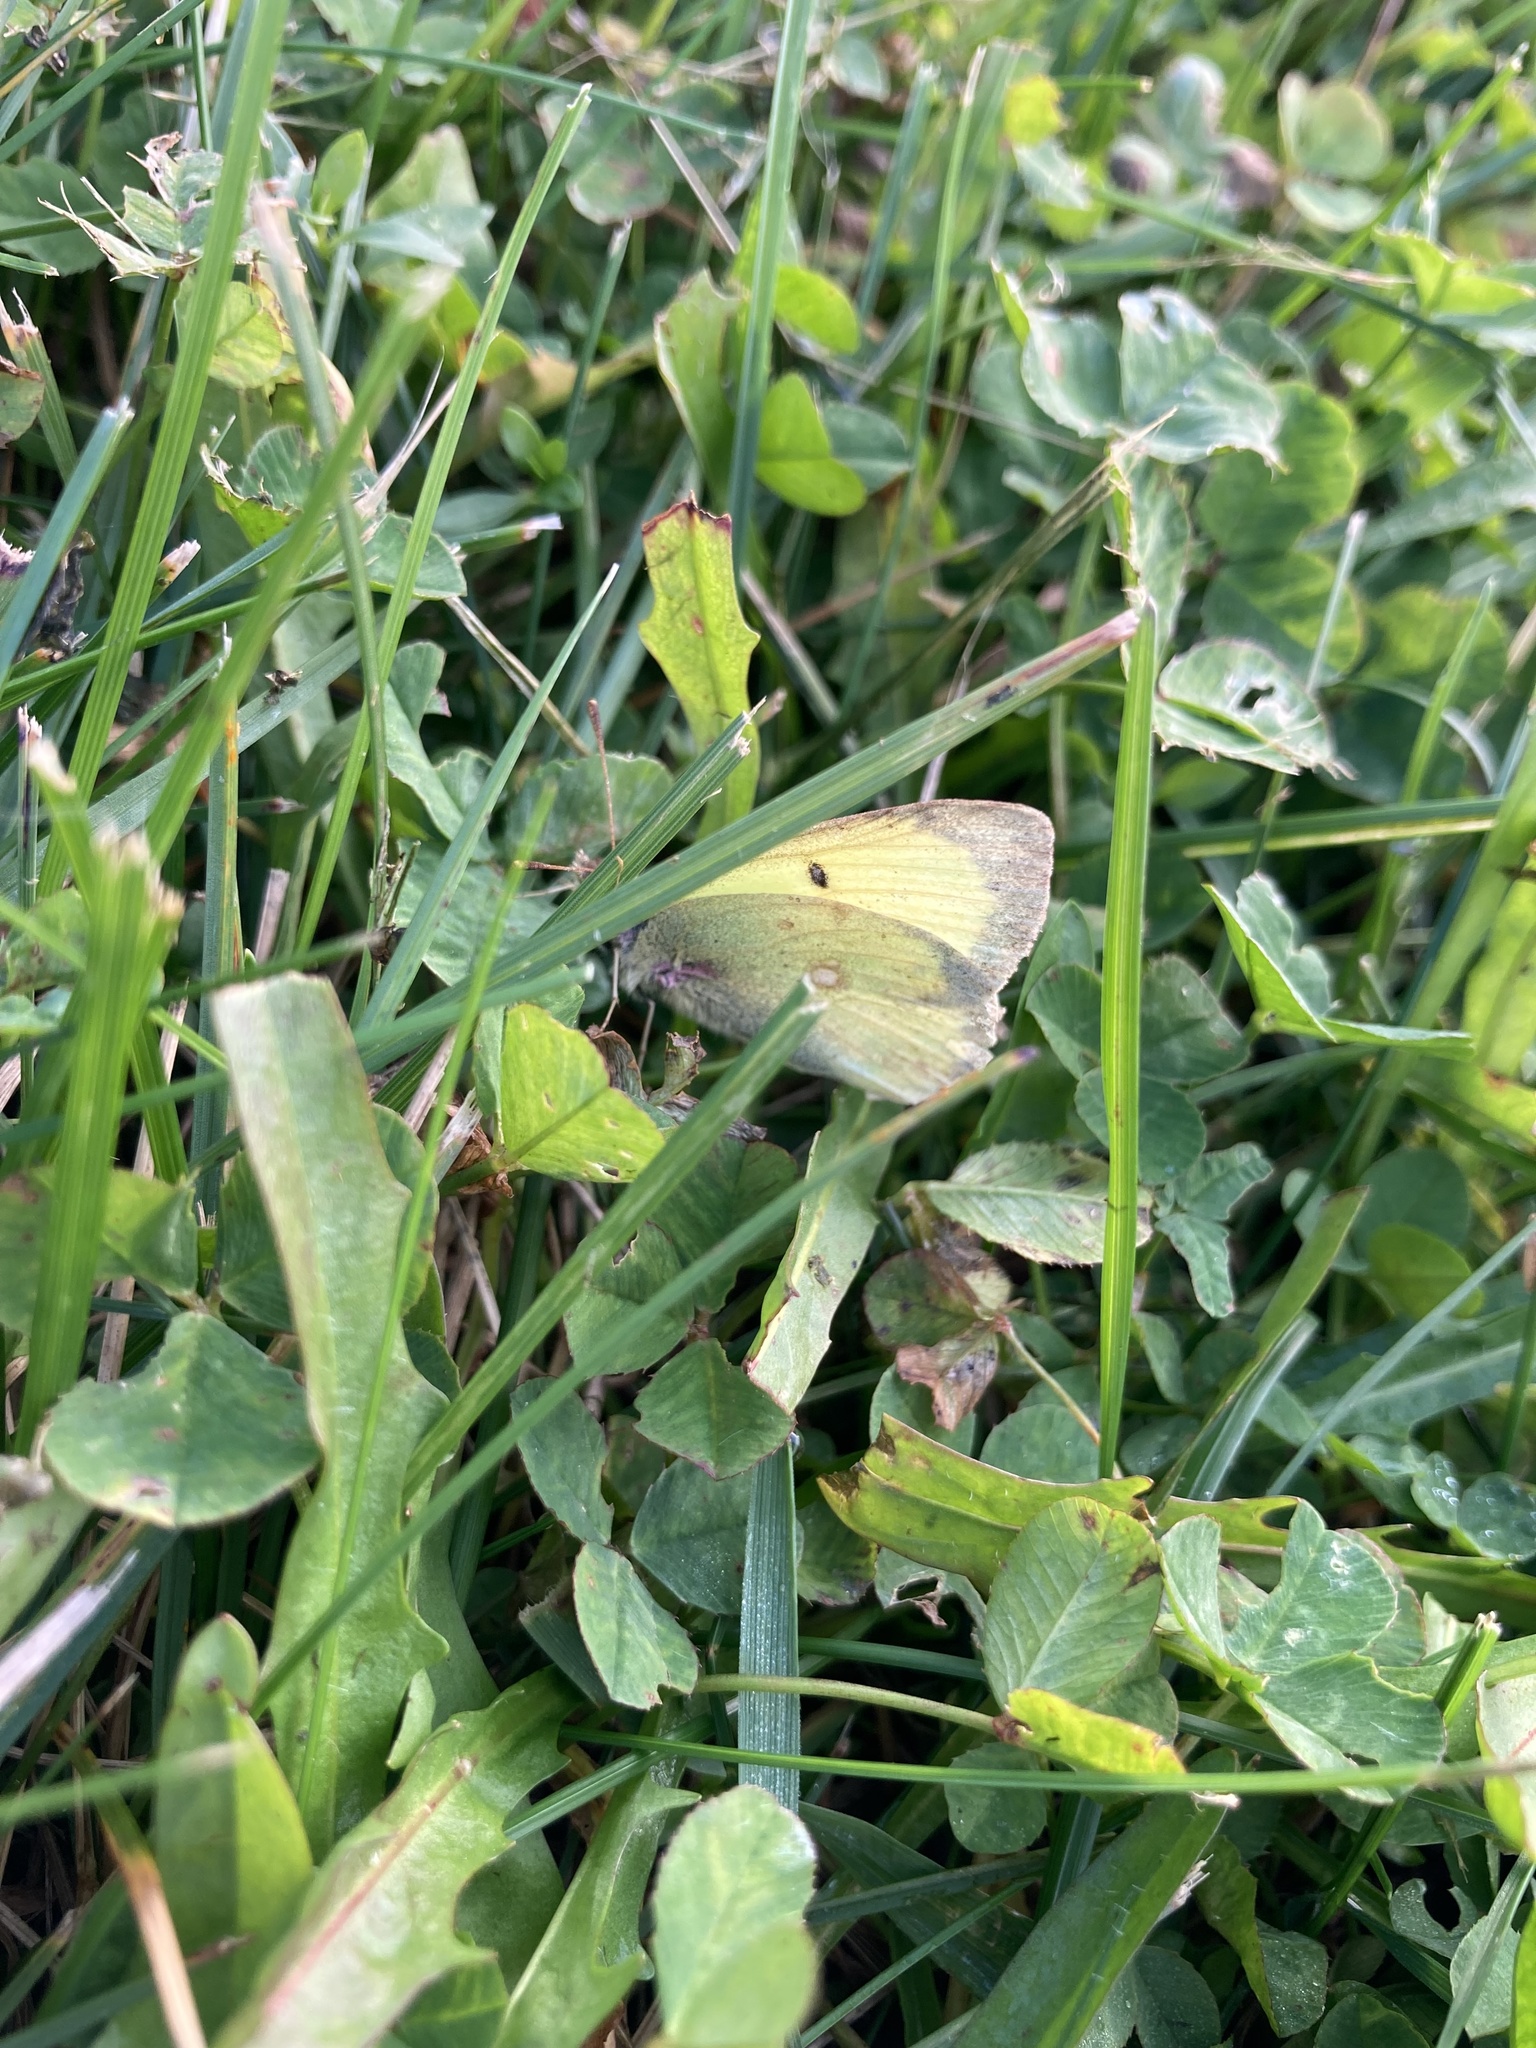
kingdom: Animalia
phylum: Arthropoda
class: Insecta
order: Lepidoptera
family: Pieridae
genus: Colias
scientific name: Colias philodice
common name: Clouded sulphur
